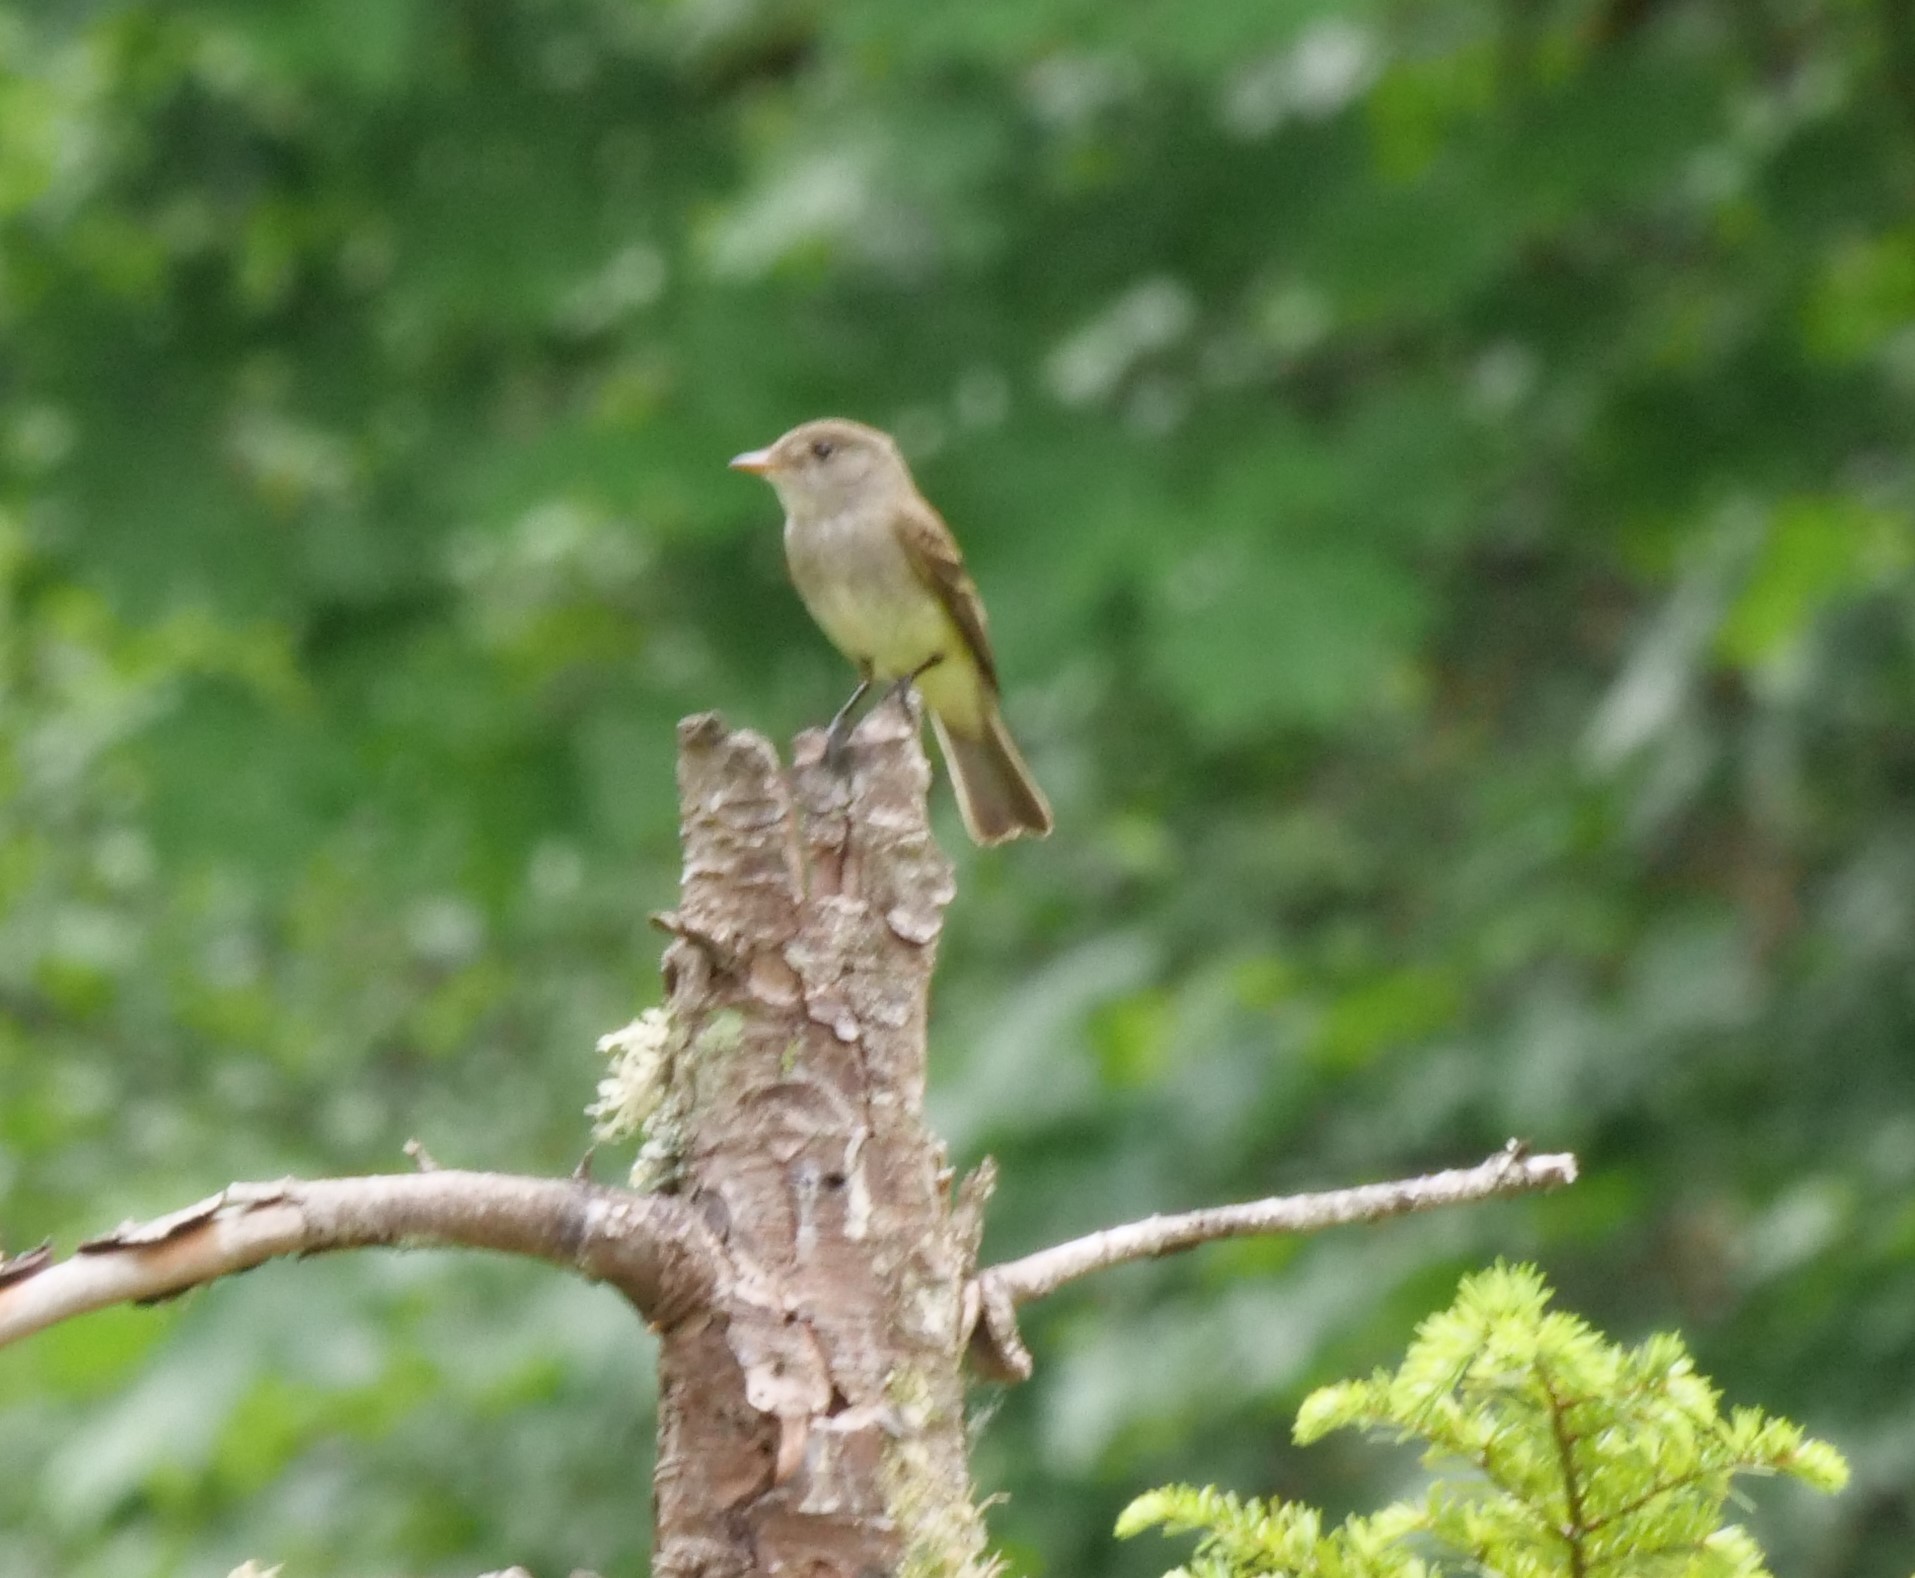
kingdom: Animalia
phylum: Chordata
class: Aves
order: Passeriformes
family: Tyrannidae
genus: Empidonax
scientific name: Empidonax traillii
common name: Willow flycatcher
